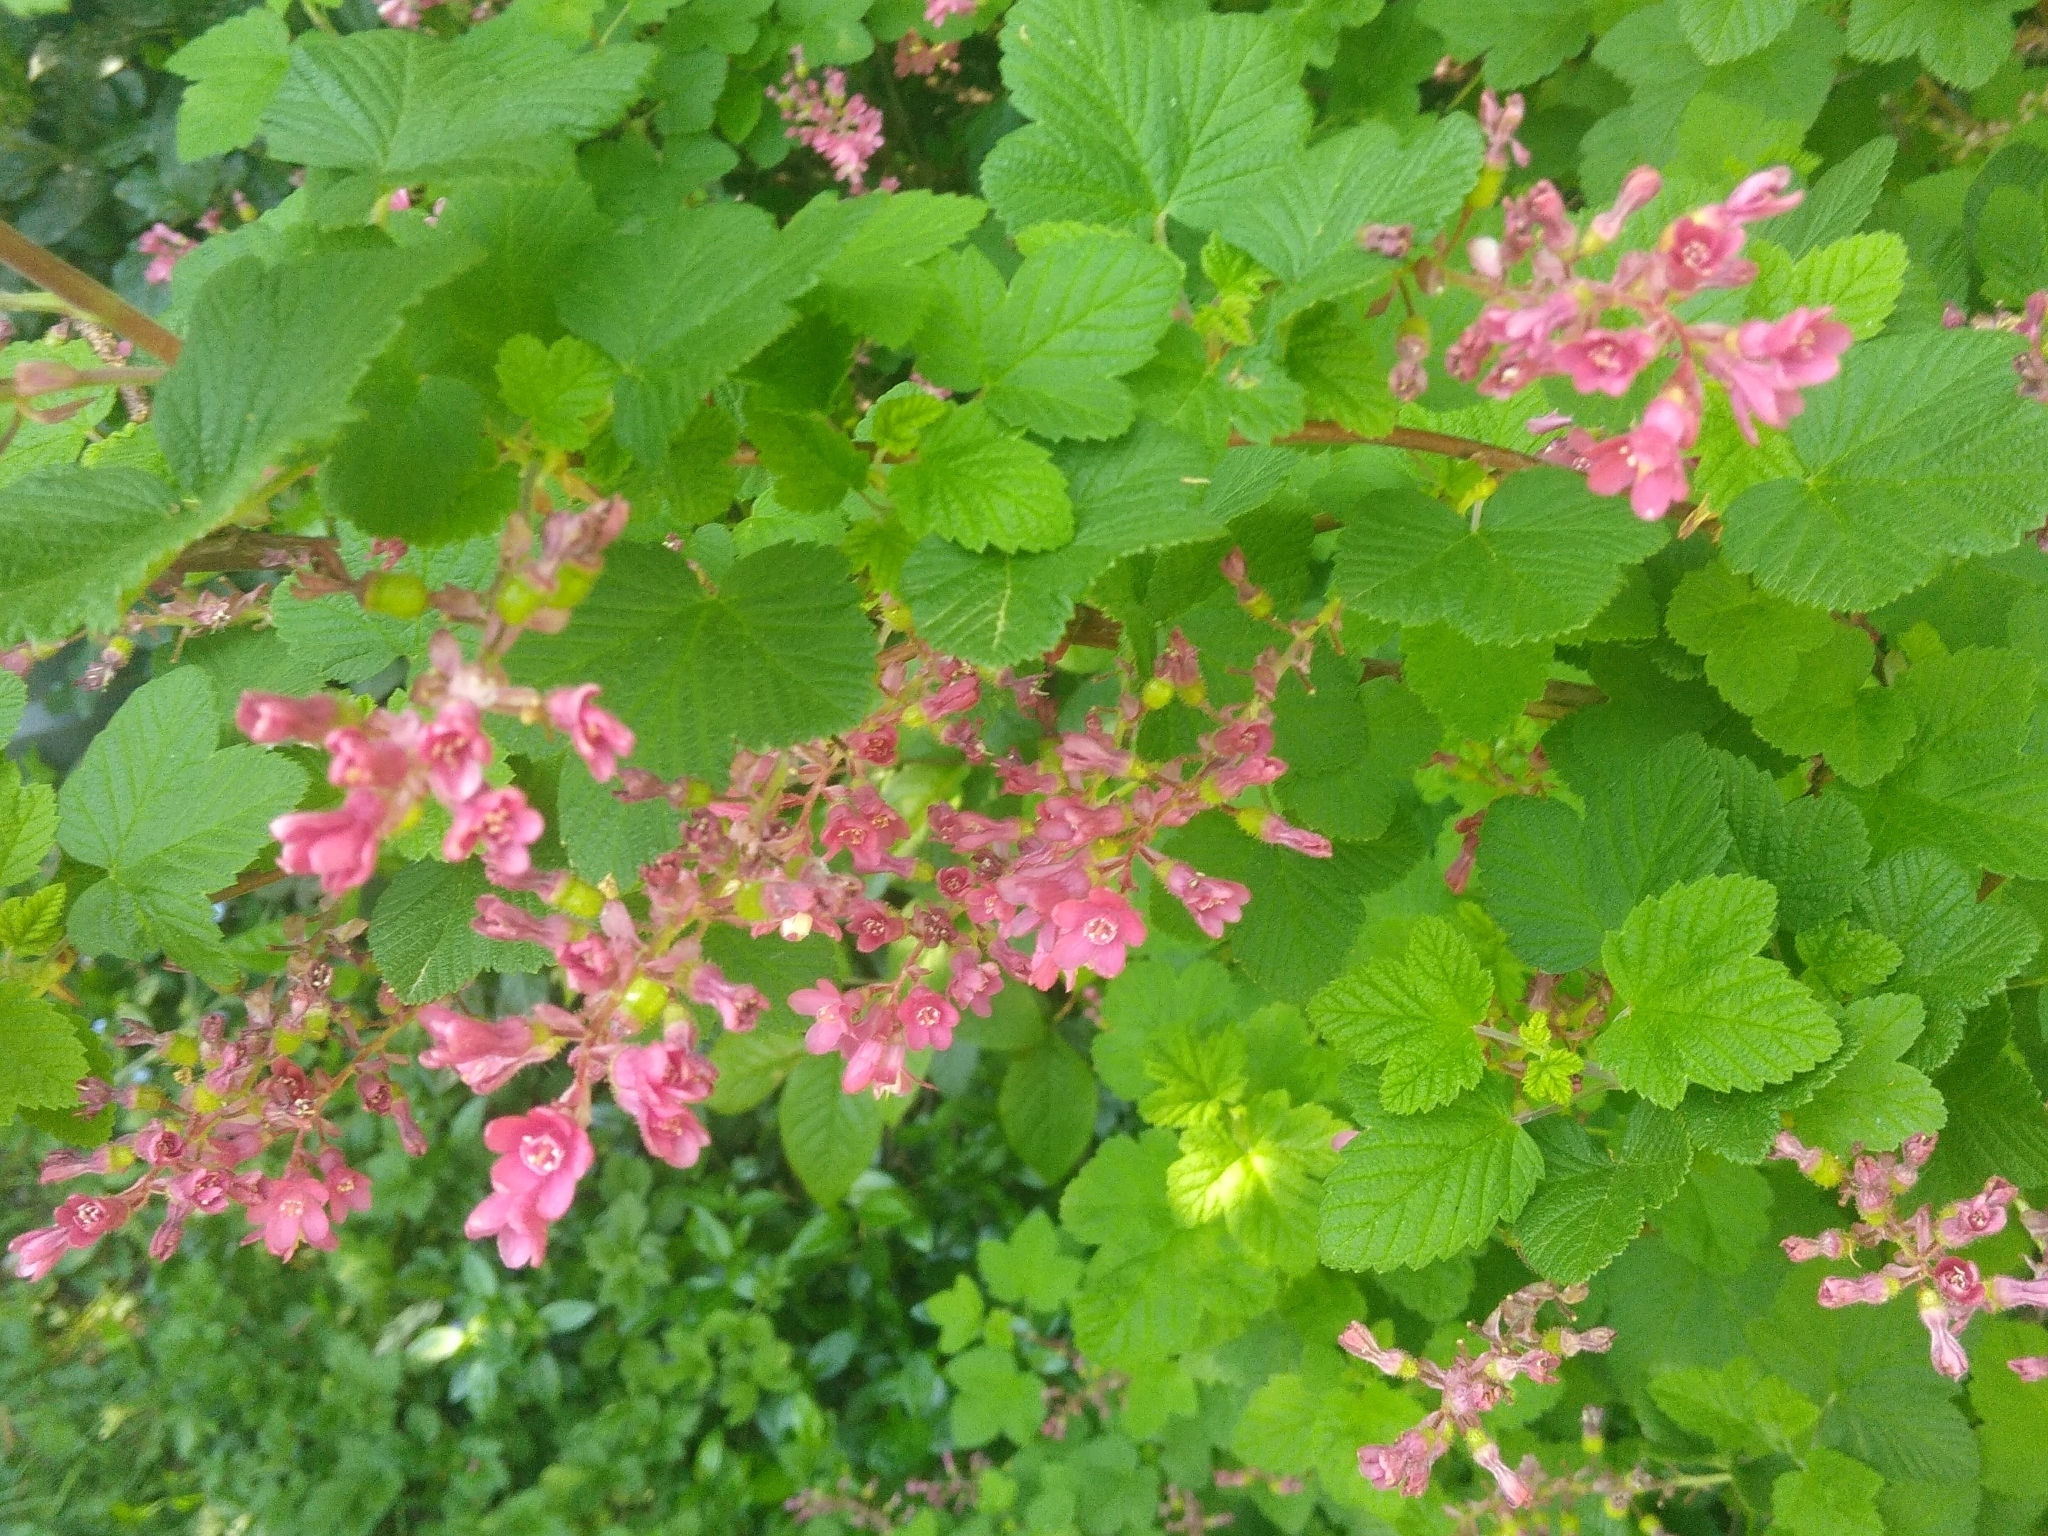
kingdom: Plantae
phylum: Tracheophyta
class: Magnoliopsida
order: Saxifragales
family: Grossulariaceae
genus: Ribes
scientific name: Ribes sanguineum
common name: Flowering currant
